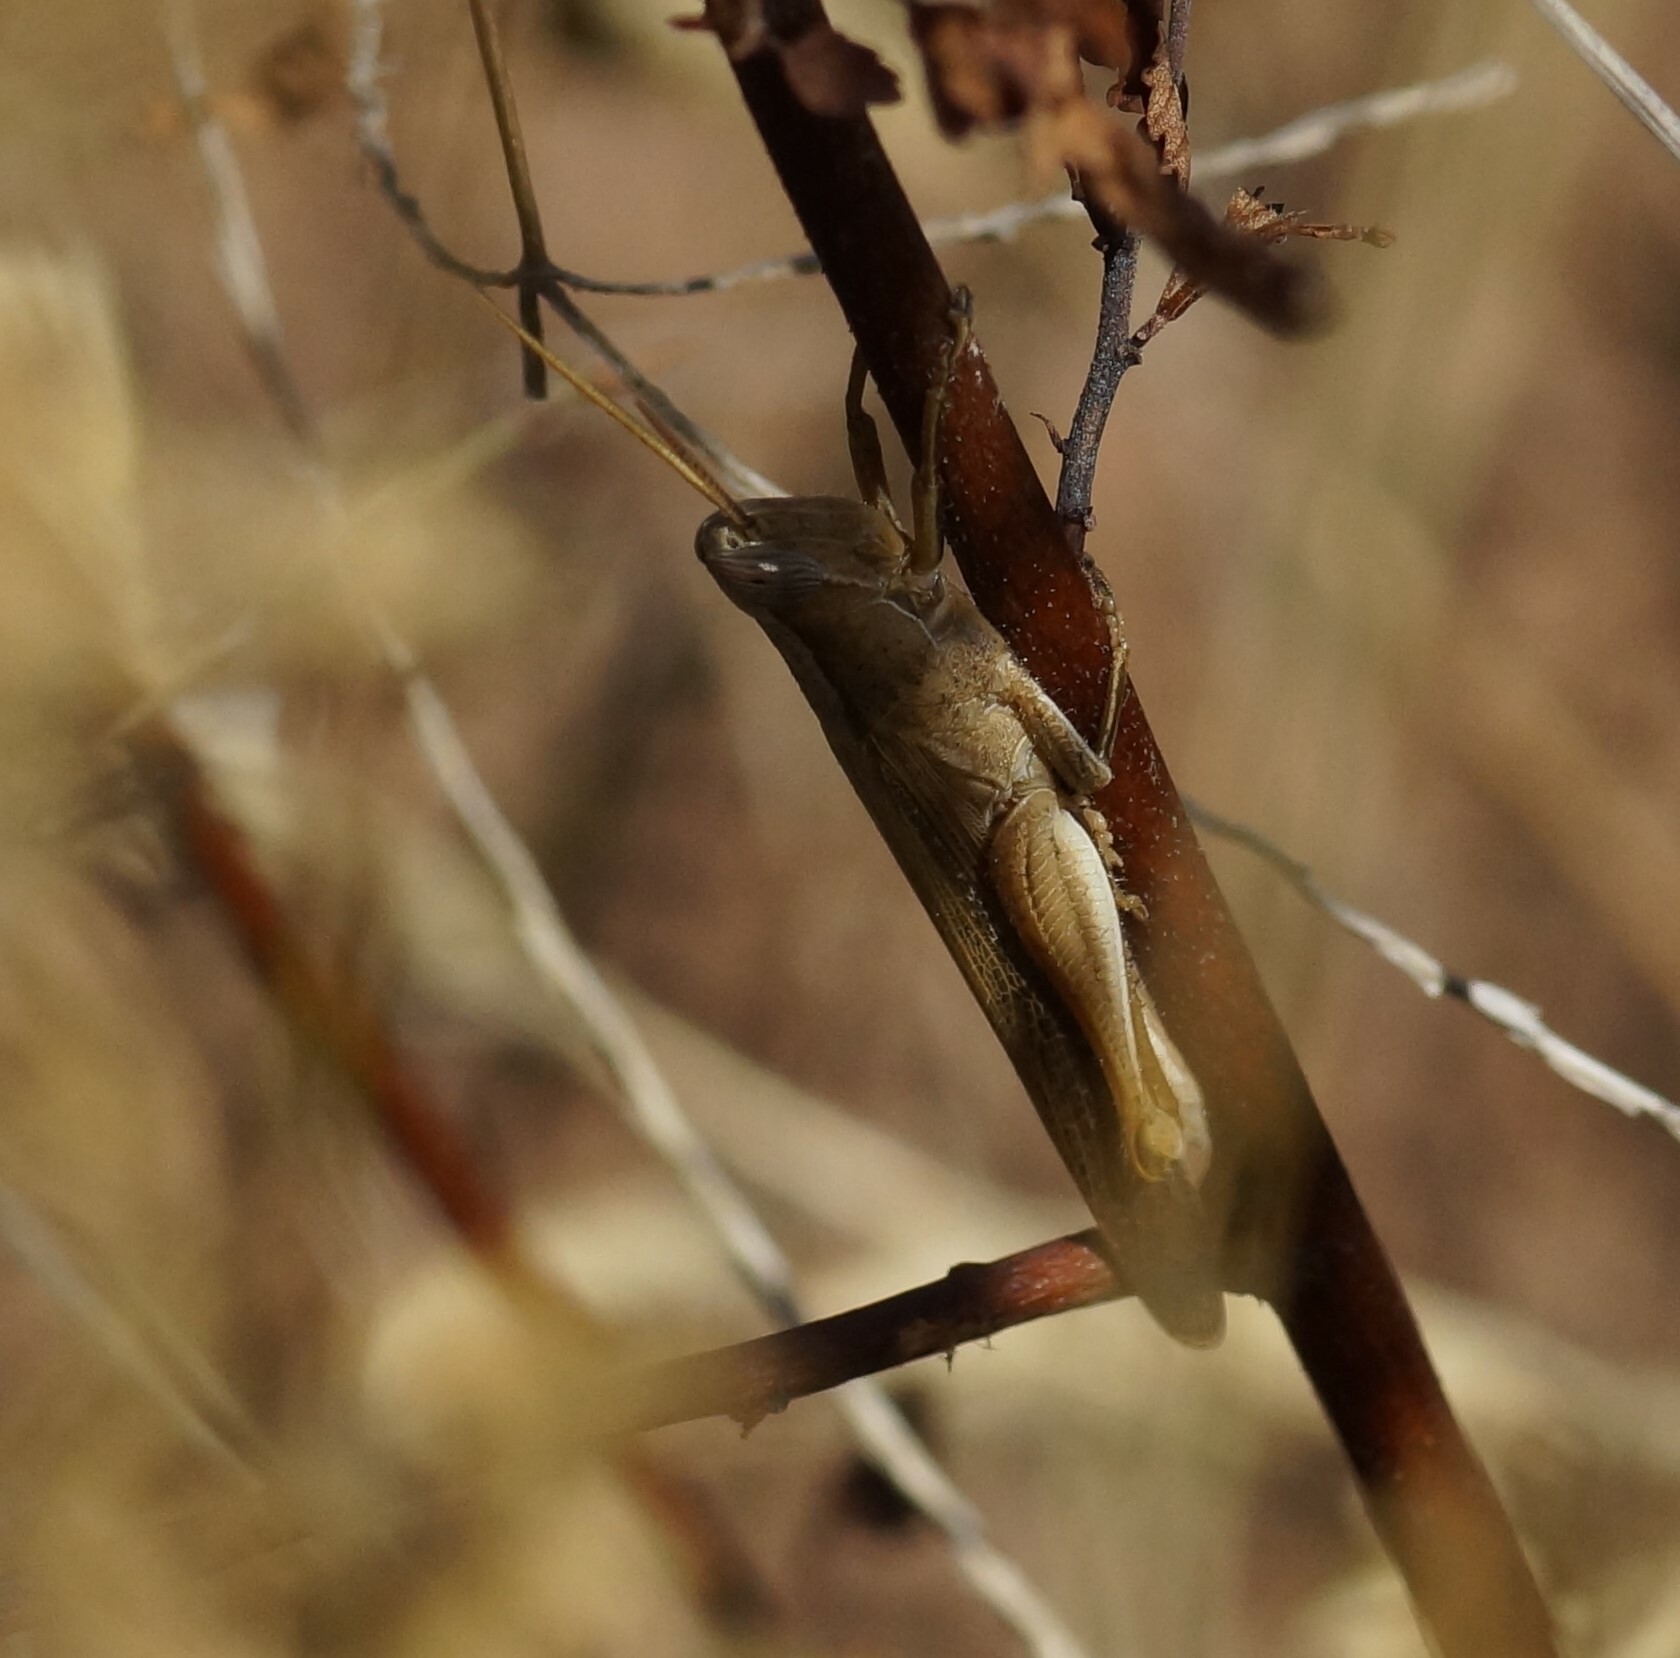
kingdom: Animalia
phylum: Arthropoda
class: Insecta
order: Orthoptera
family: Acrididae
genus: Stenocatantops
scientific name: Stenocatantops vitripennis
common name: Light-brown sharptail
